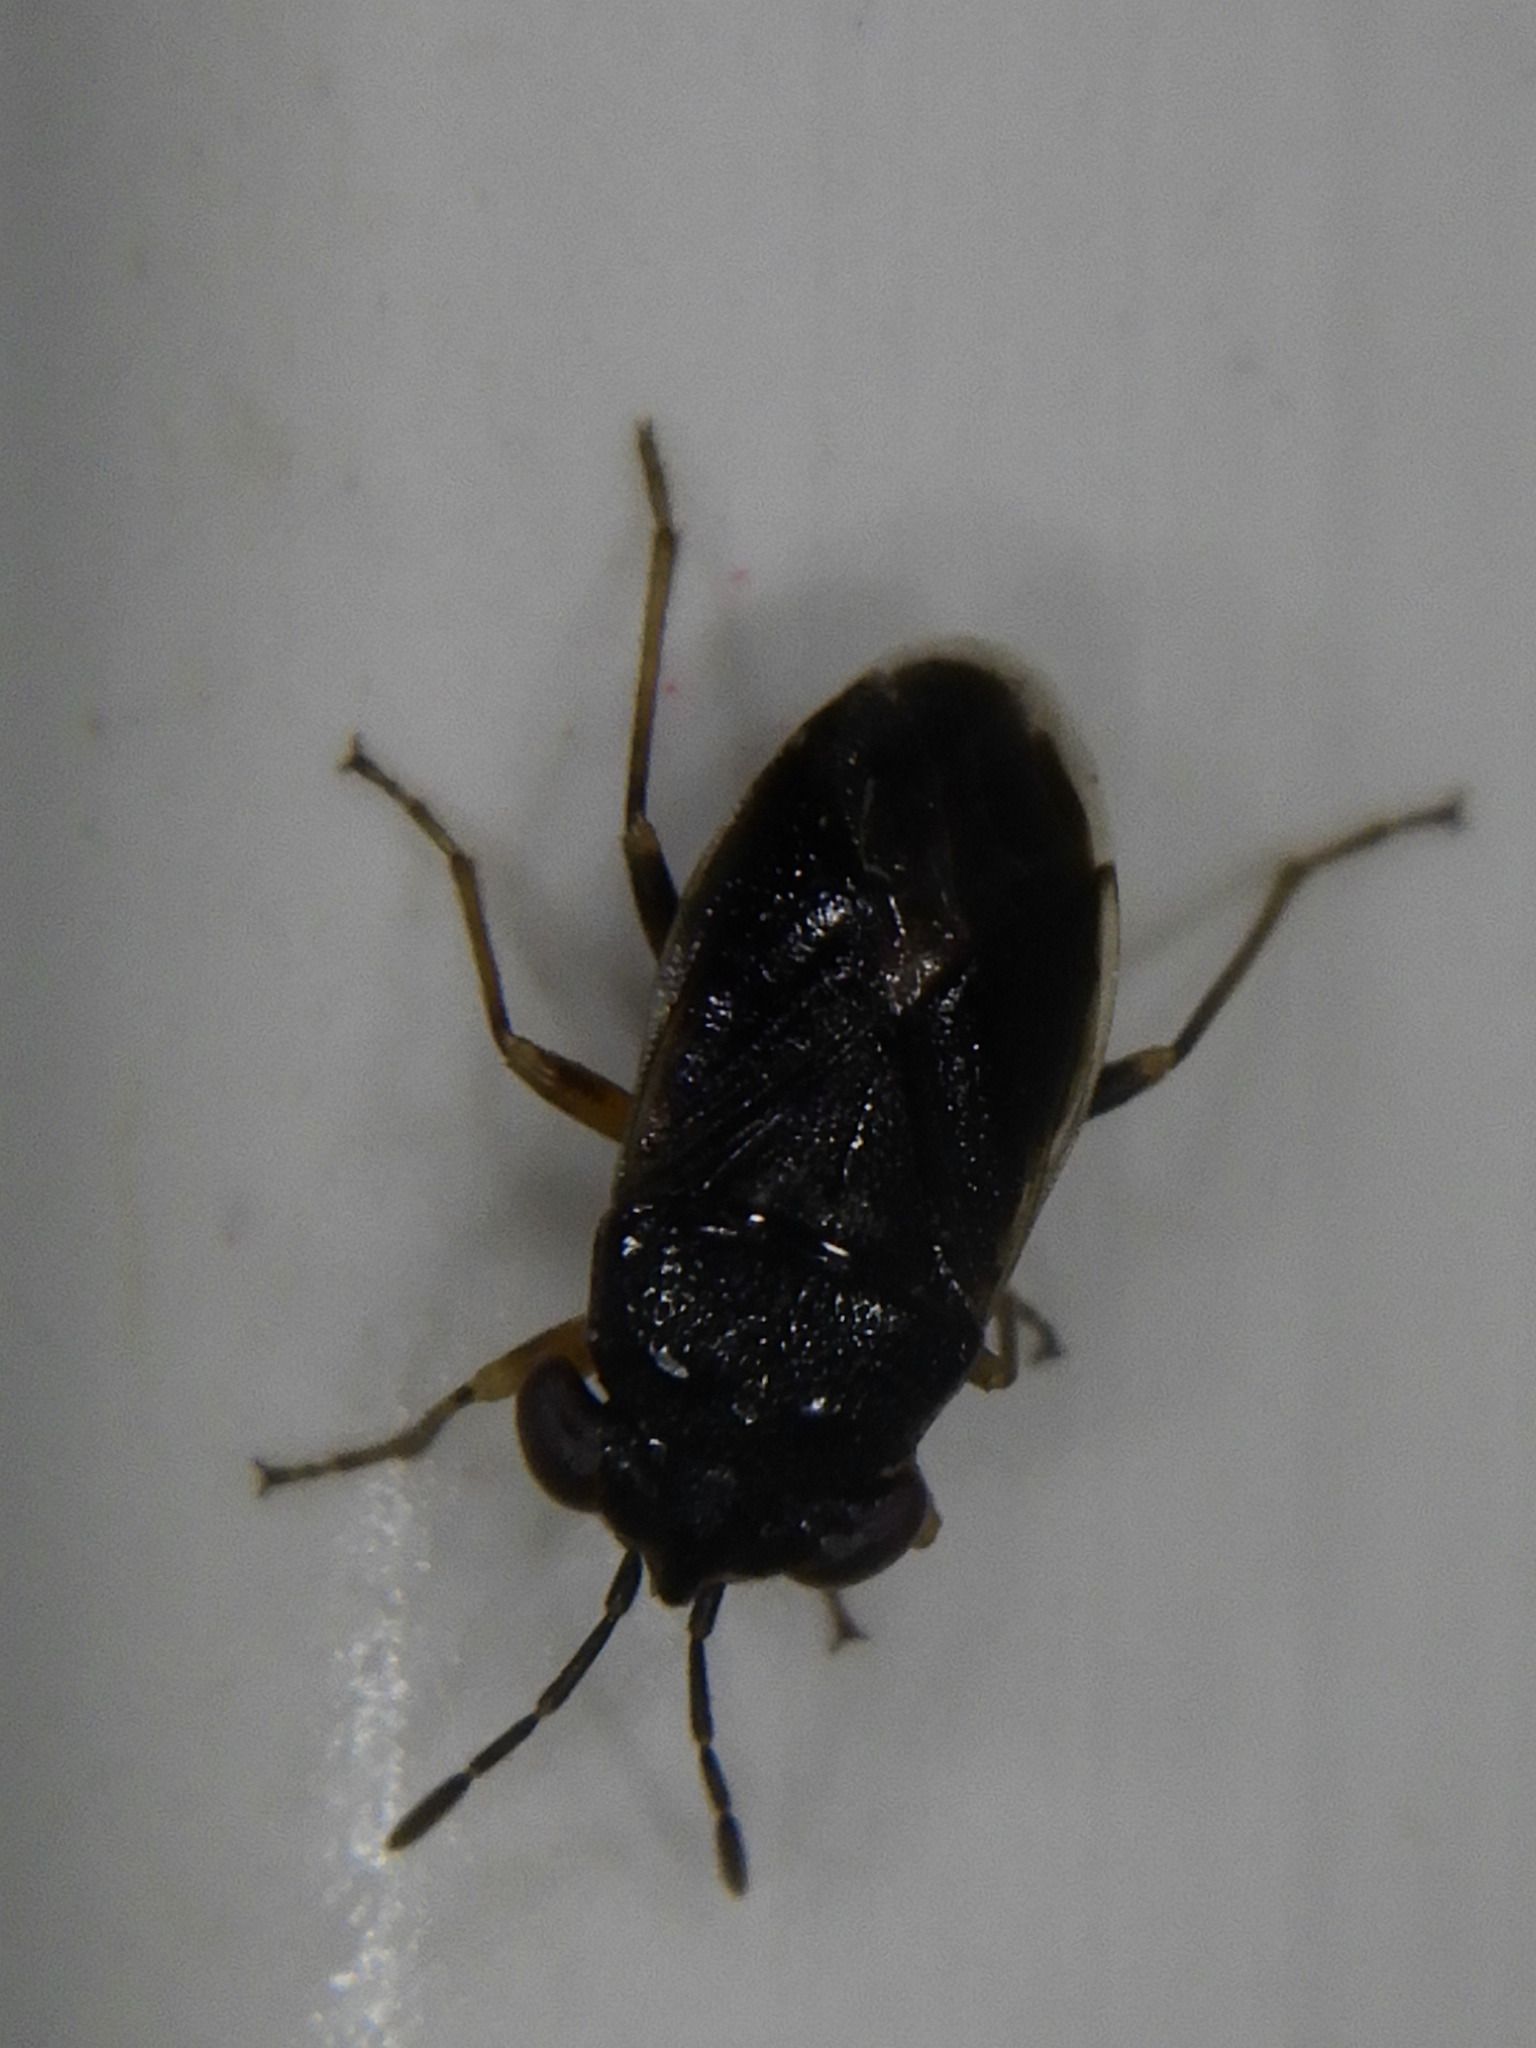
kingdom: Animalia
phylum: Arthropoda
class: Insecta
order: Hemiptera
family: Geocoridae
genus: Geocoris
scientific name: Geocoris
